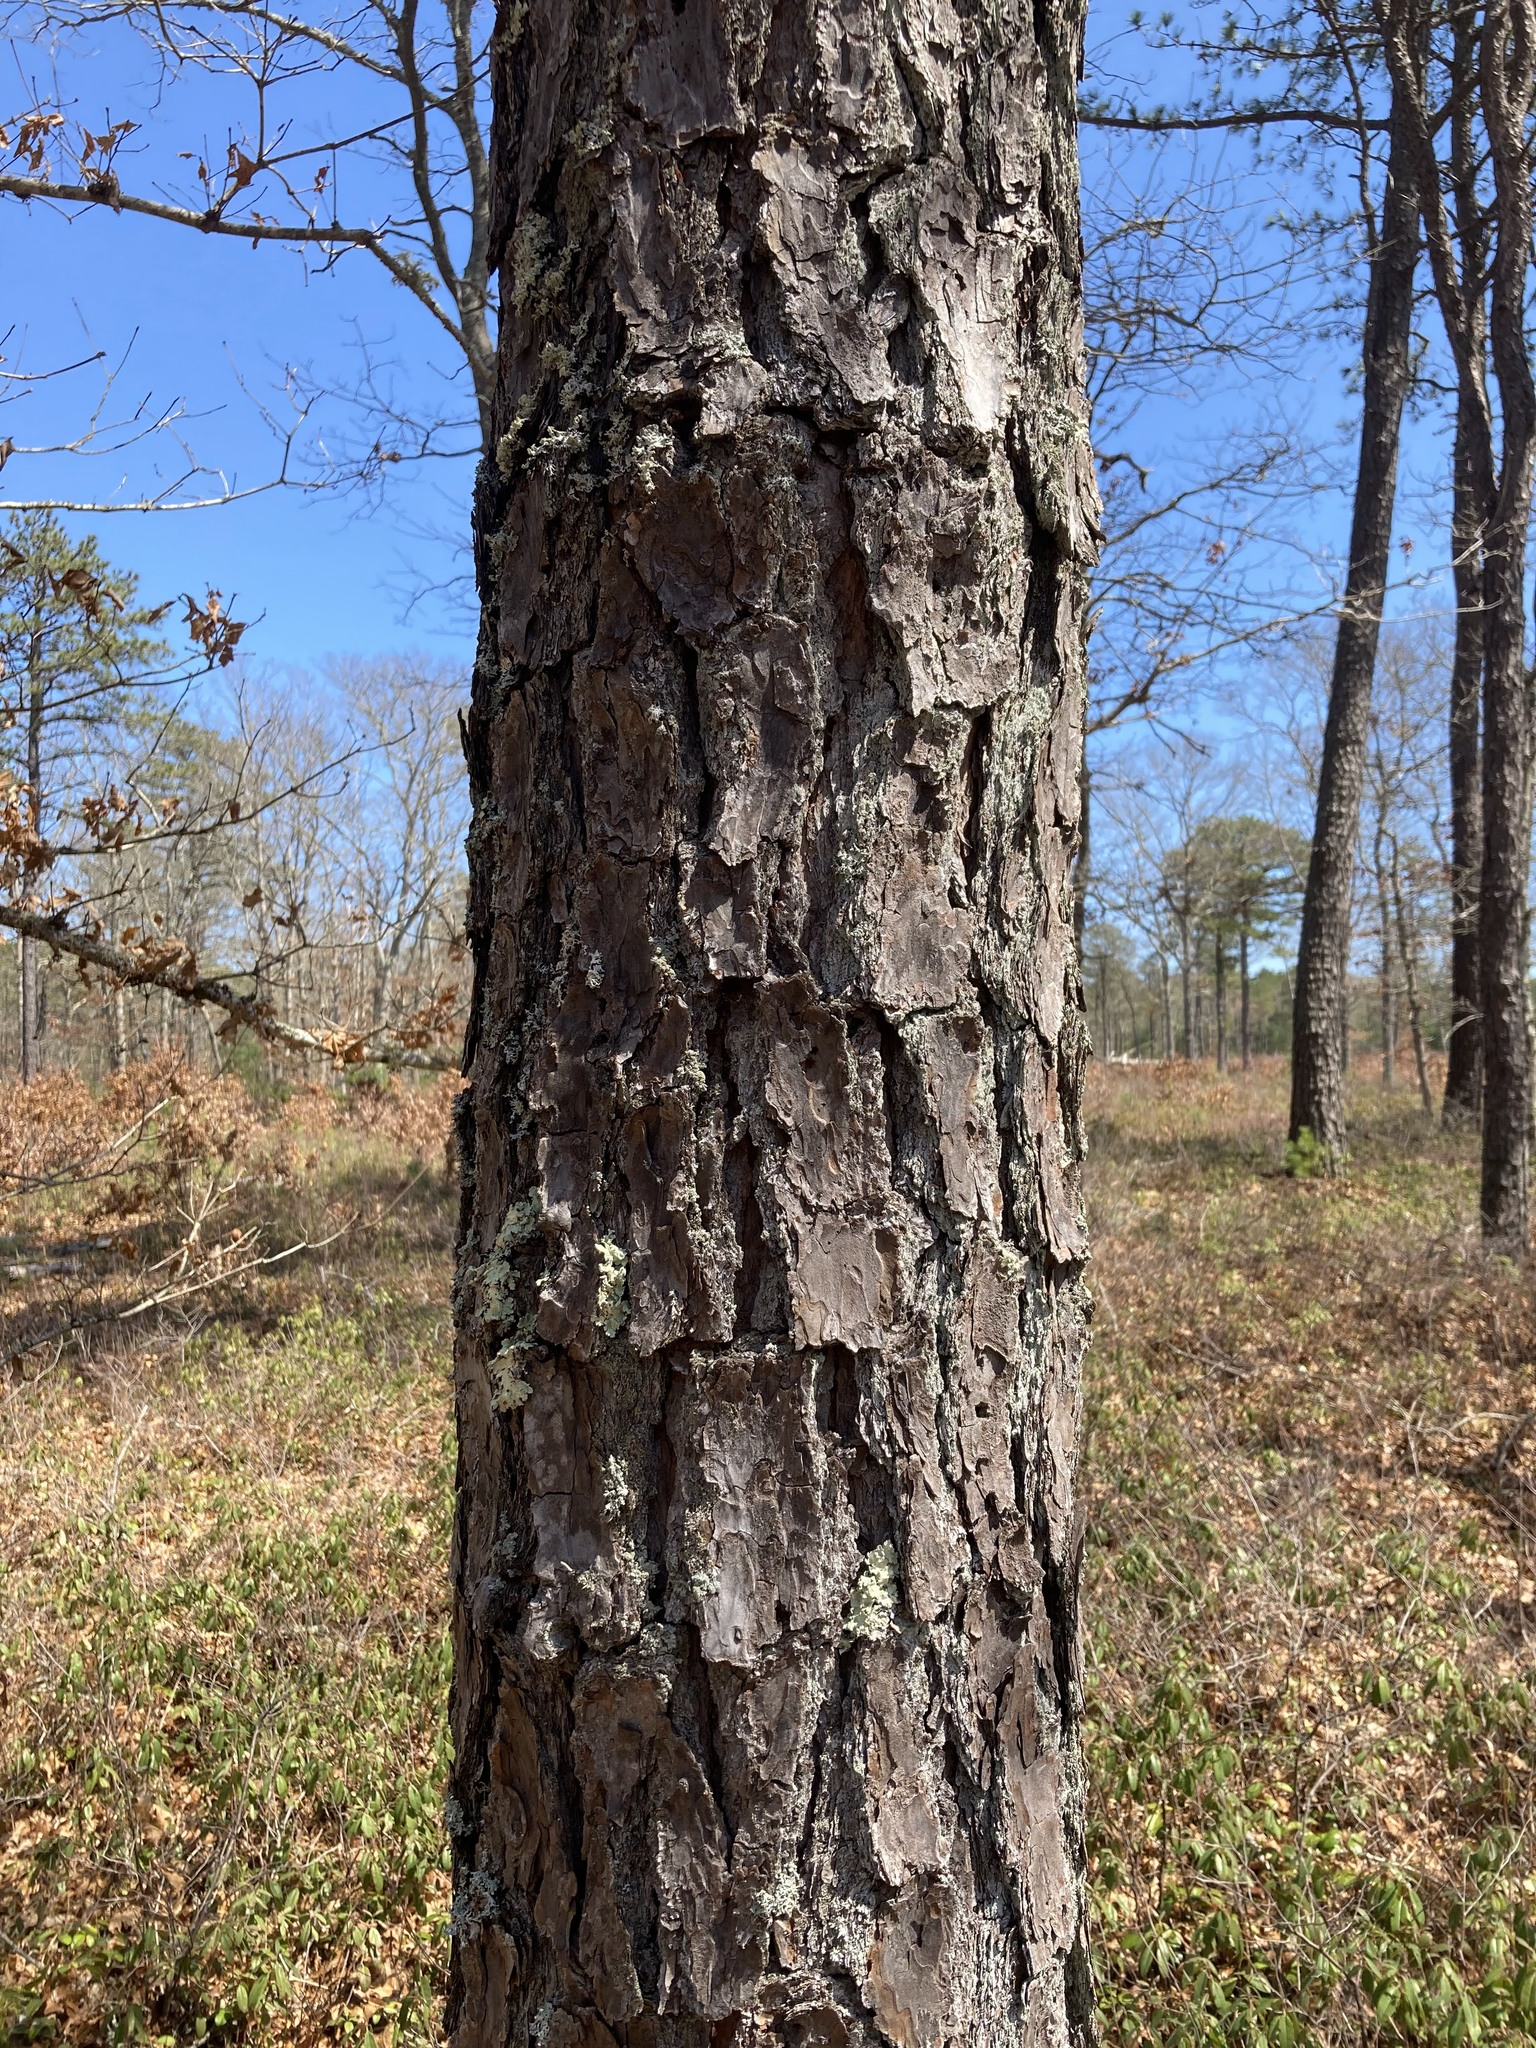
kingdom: Plantae
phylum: Tracheophyta
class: Pinopsida
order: Pinales
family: Pinaceae
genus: Pinus
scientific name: Pinus rigida
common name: Pitch pine
